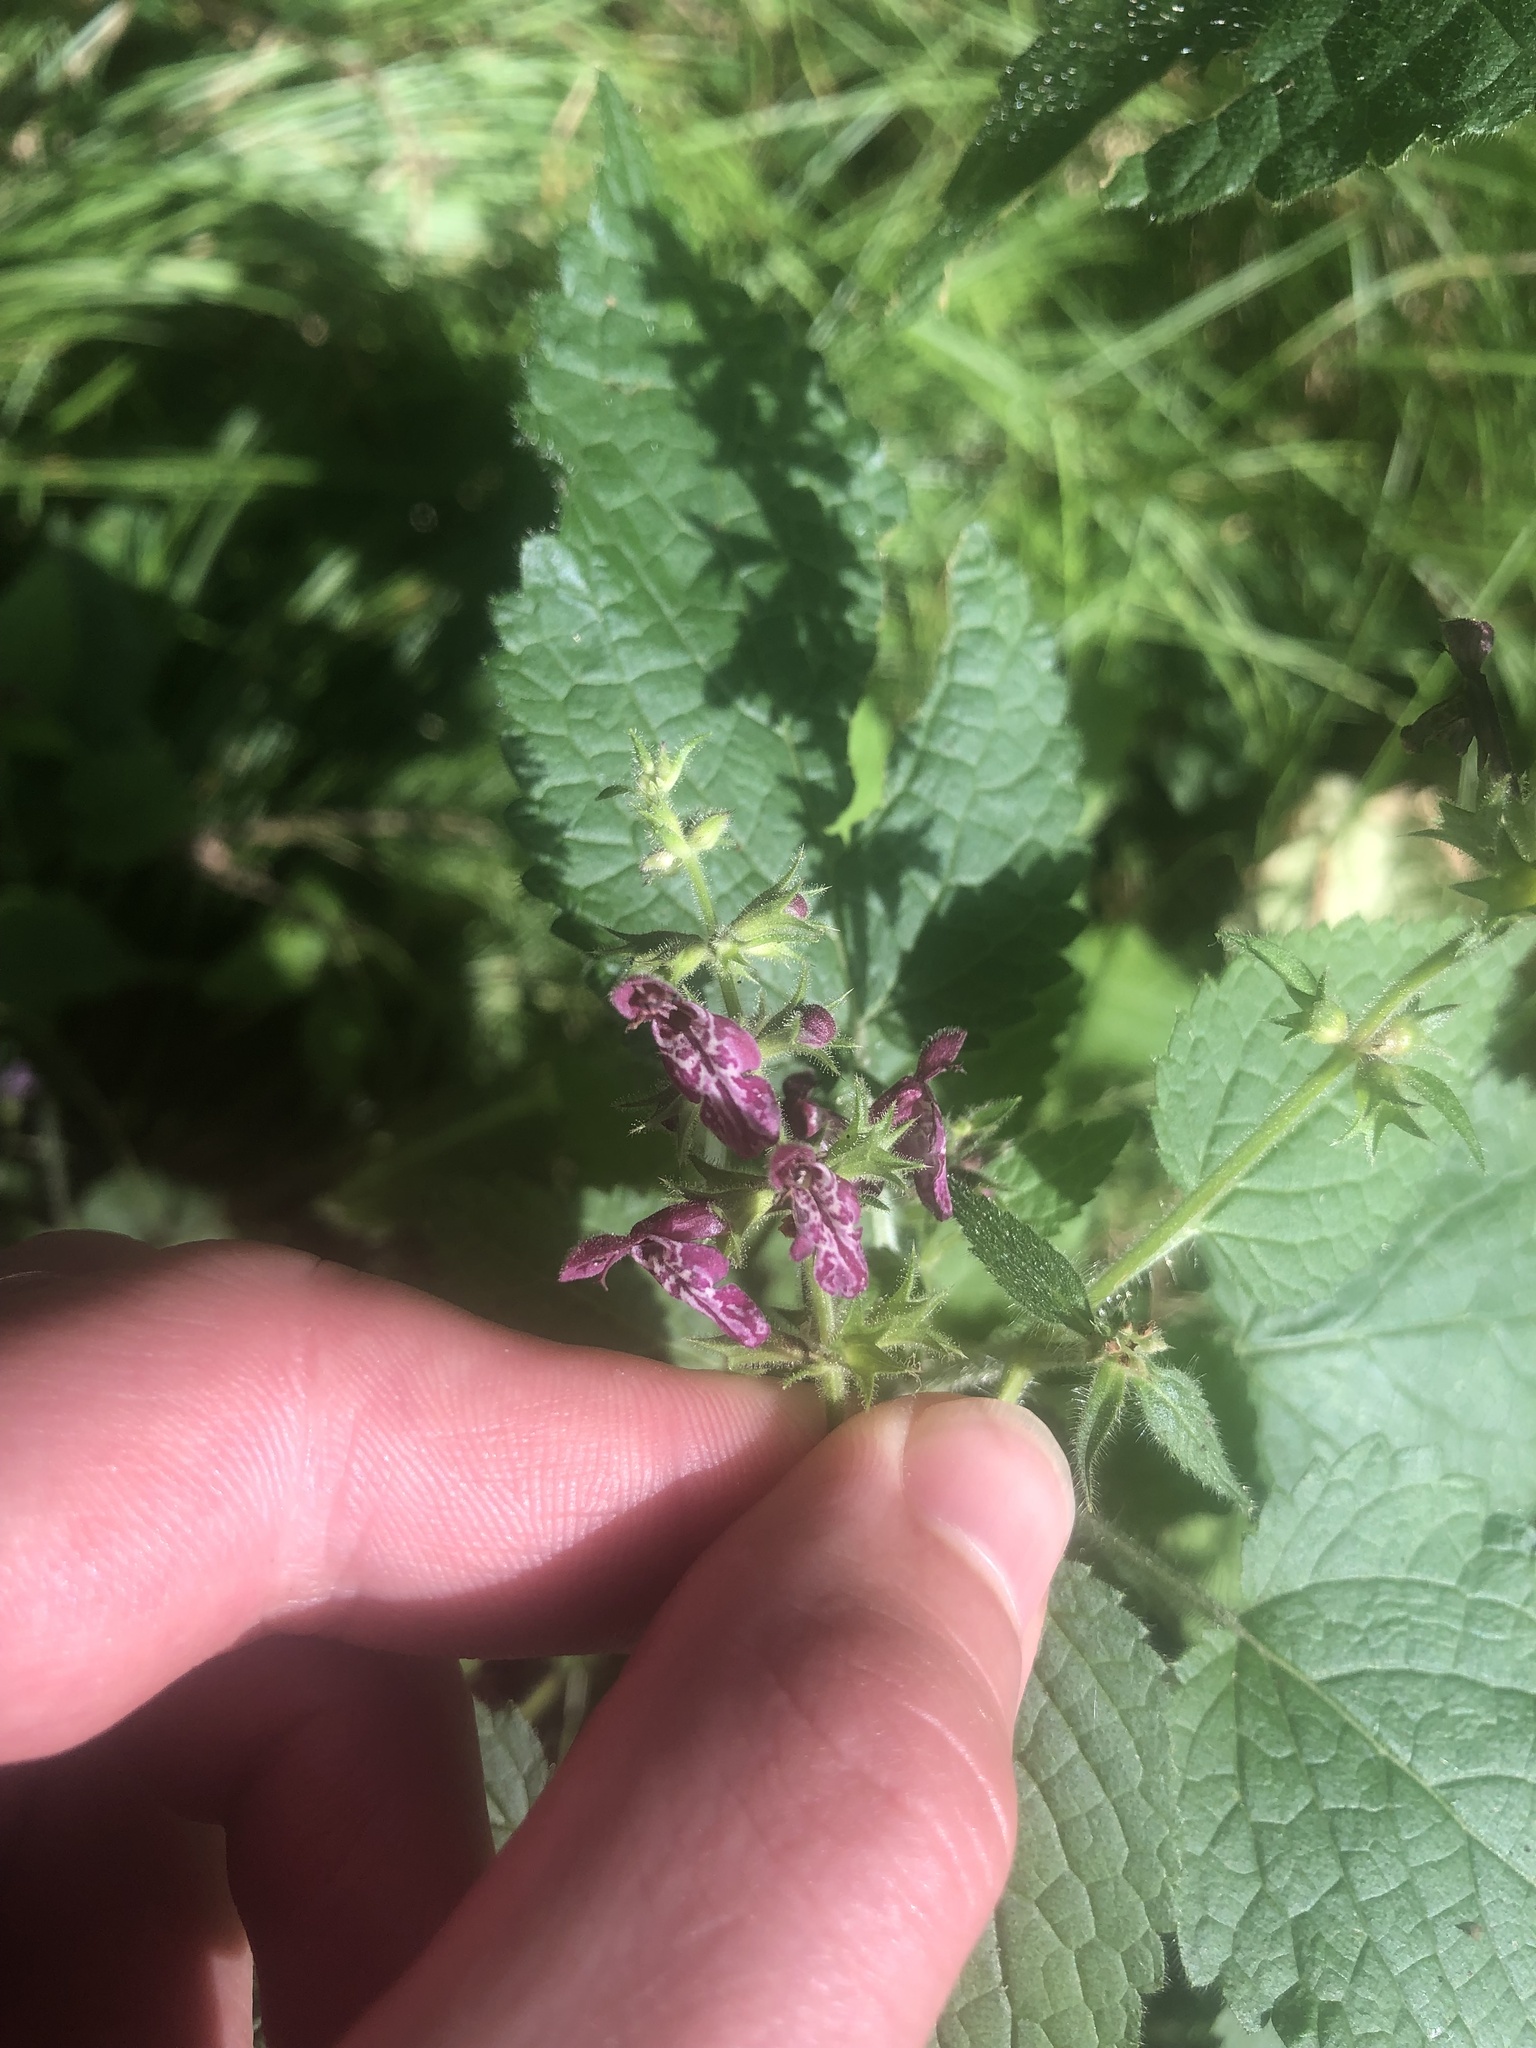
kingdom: Plantae
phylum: Tracheophyta
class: Magnoliopsida
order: Lamiales
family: Lamiaceae
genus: Stachys
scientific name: Stachys sylvatica
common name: Hedge woundwort
